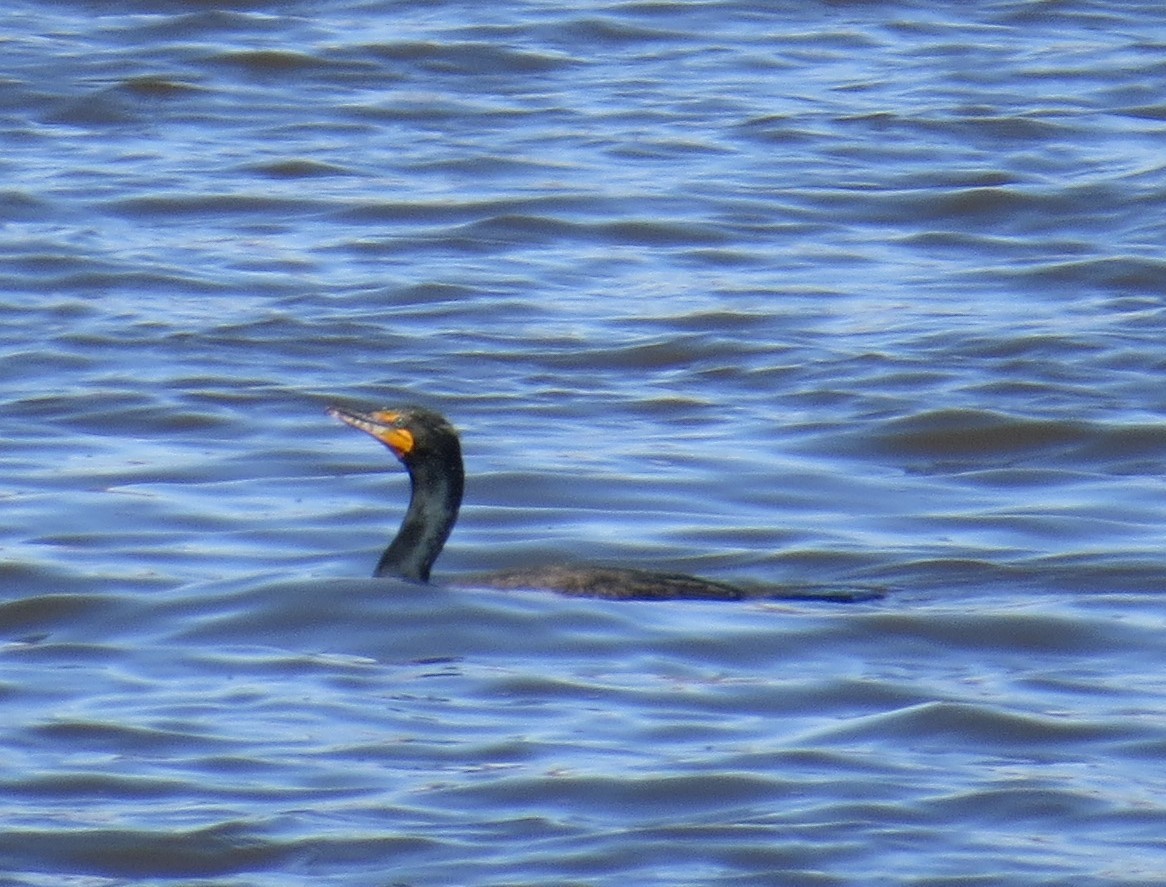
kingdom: Animalia
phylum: Chordata
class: Aves
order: Suliformes
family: Phalacrocoracidae
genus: Phalacrocorax
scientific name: Phalacrocorax auritus
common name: Double-crested cormorant
